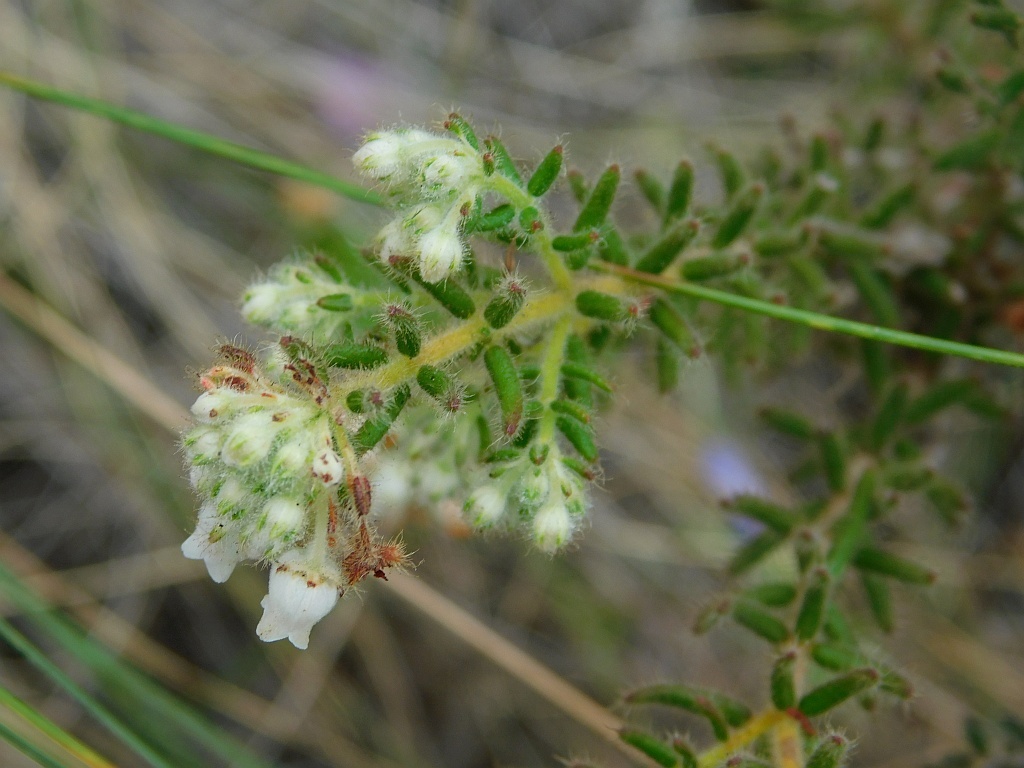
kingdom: Plantae
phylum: Tracheophyta
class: Magnoliopsida
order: Ericales
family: Ericaceae
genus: Erica
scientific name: Erica pannosa
